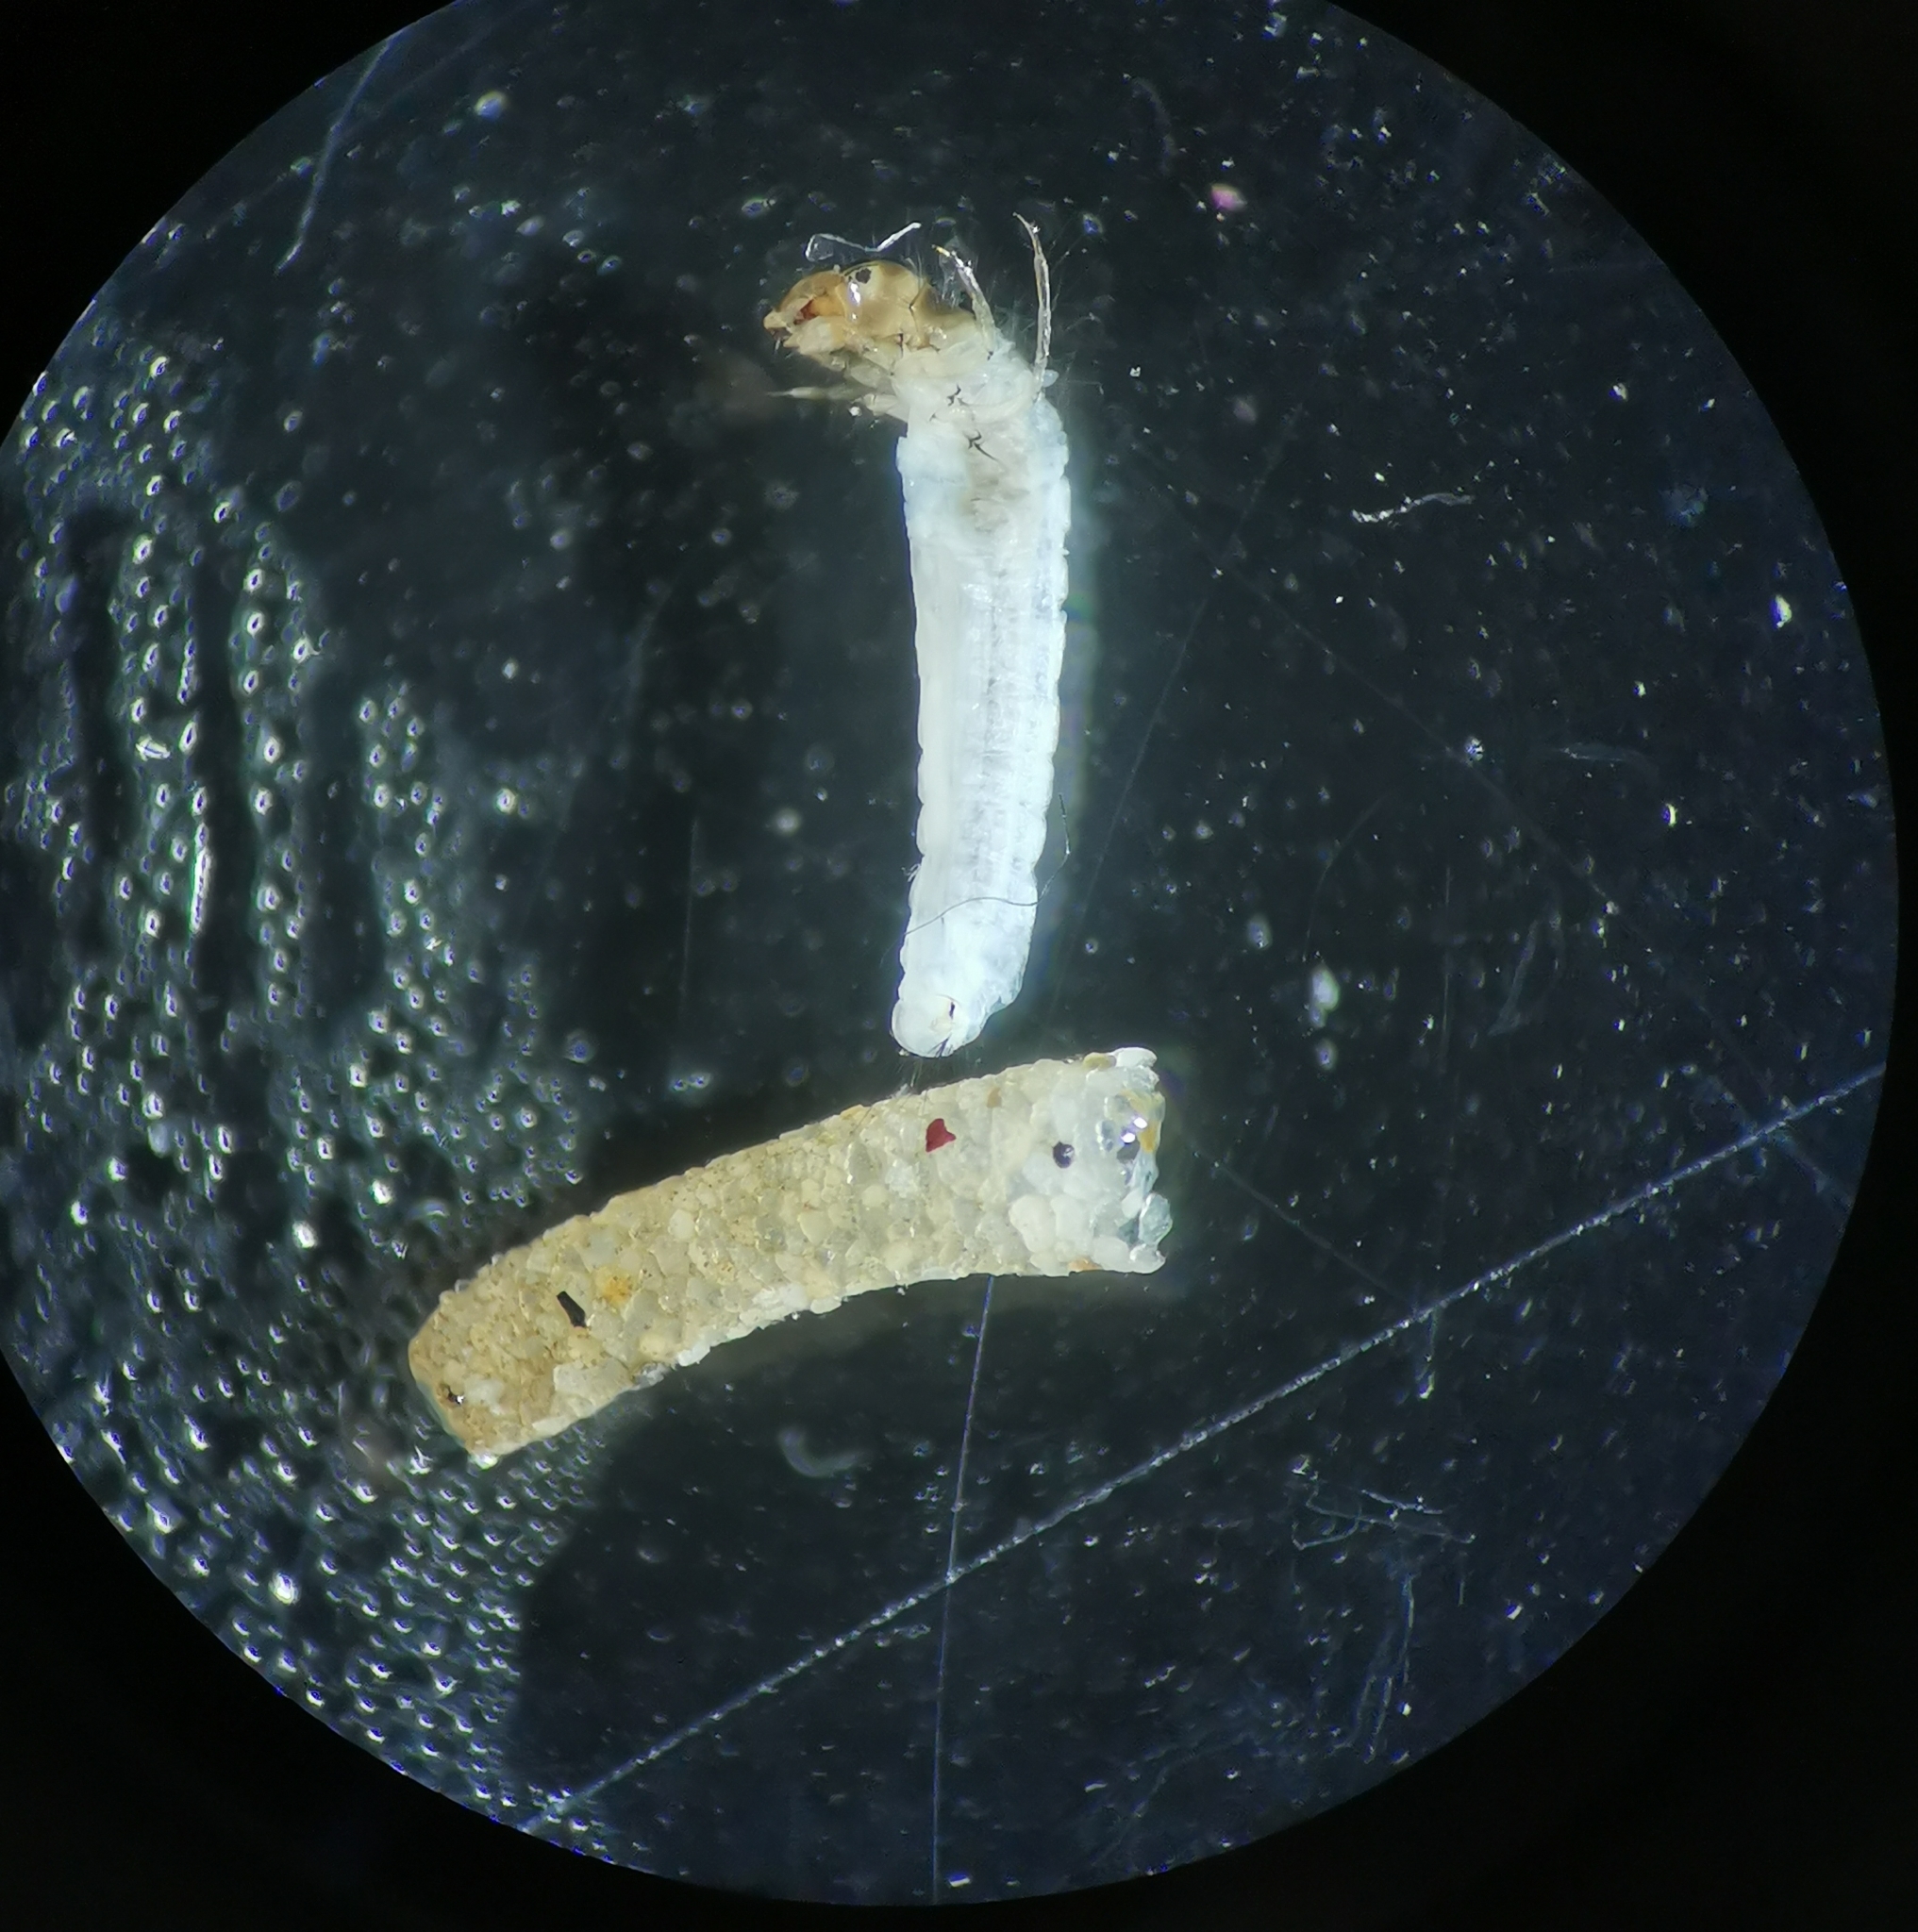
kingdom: Animalia
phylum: Arthropoda
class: Insecta
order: Trichoptera
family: Sericostomatidae
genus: Sericostoma
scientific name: Sericostoma personatum
